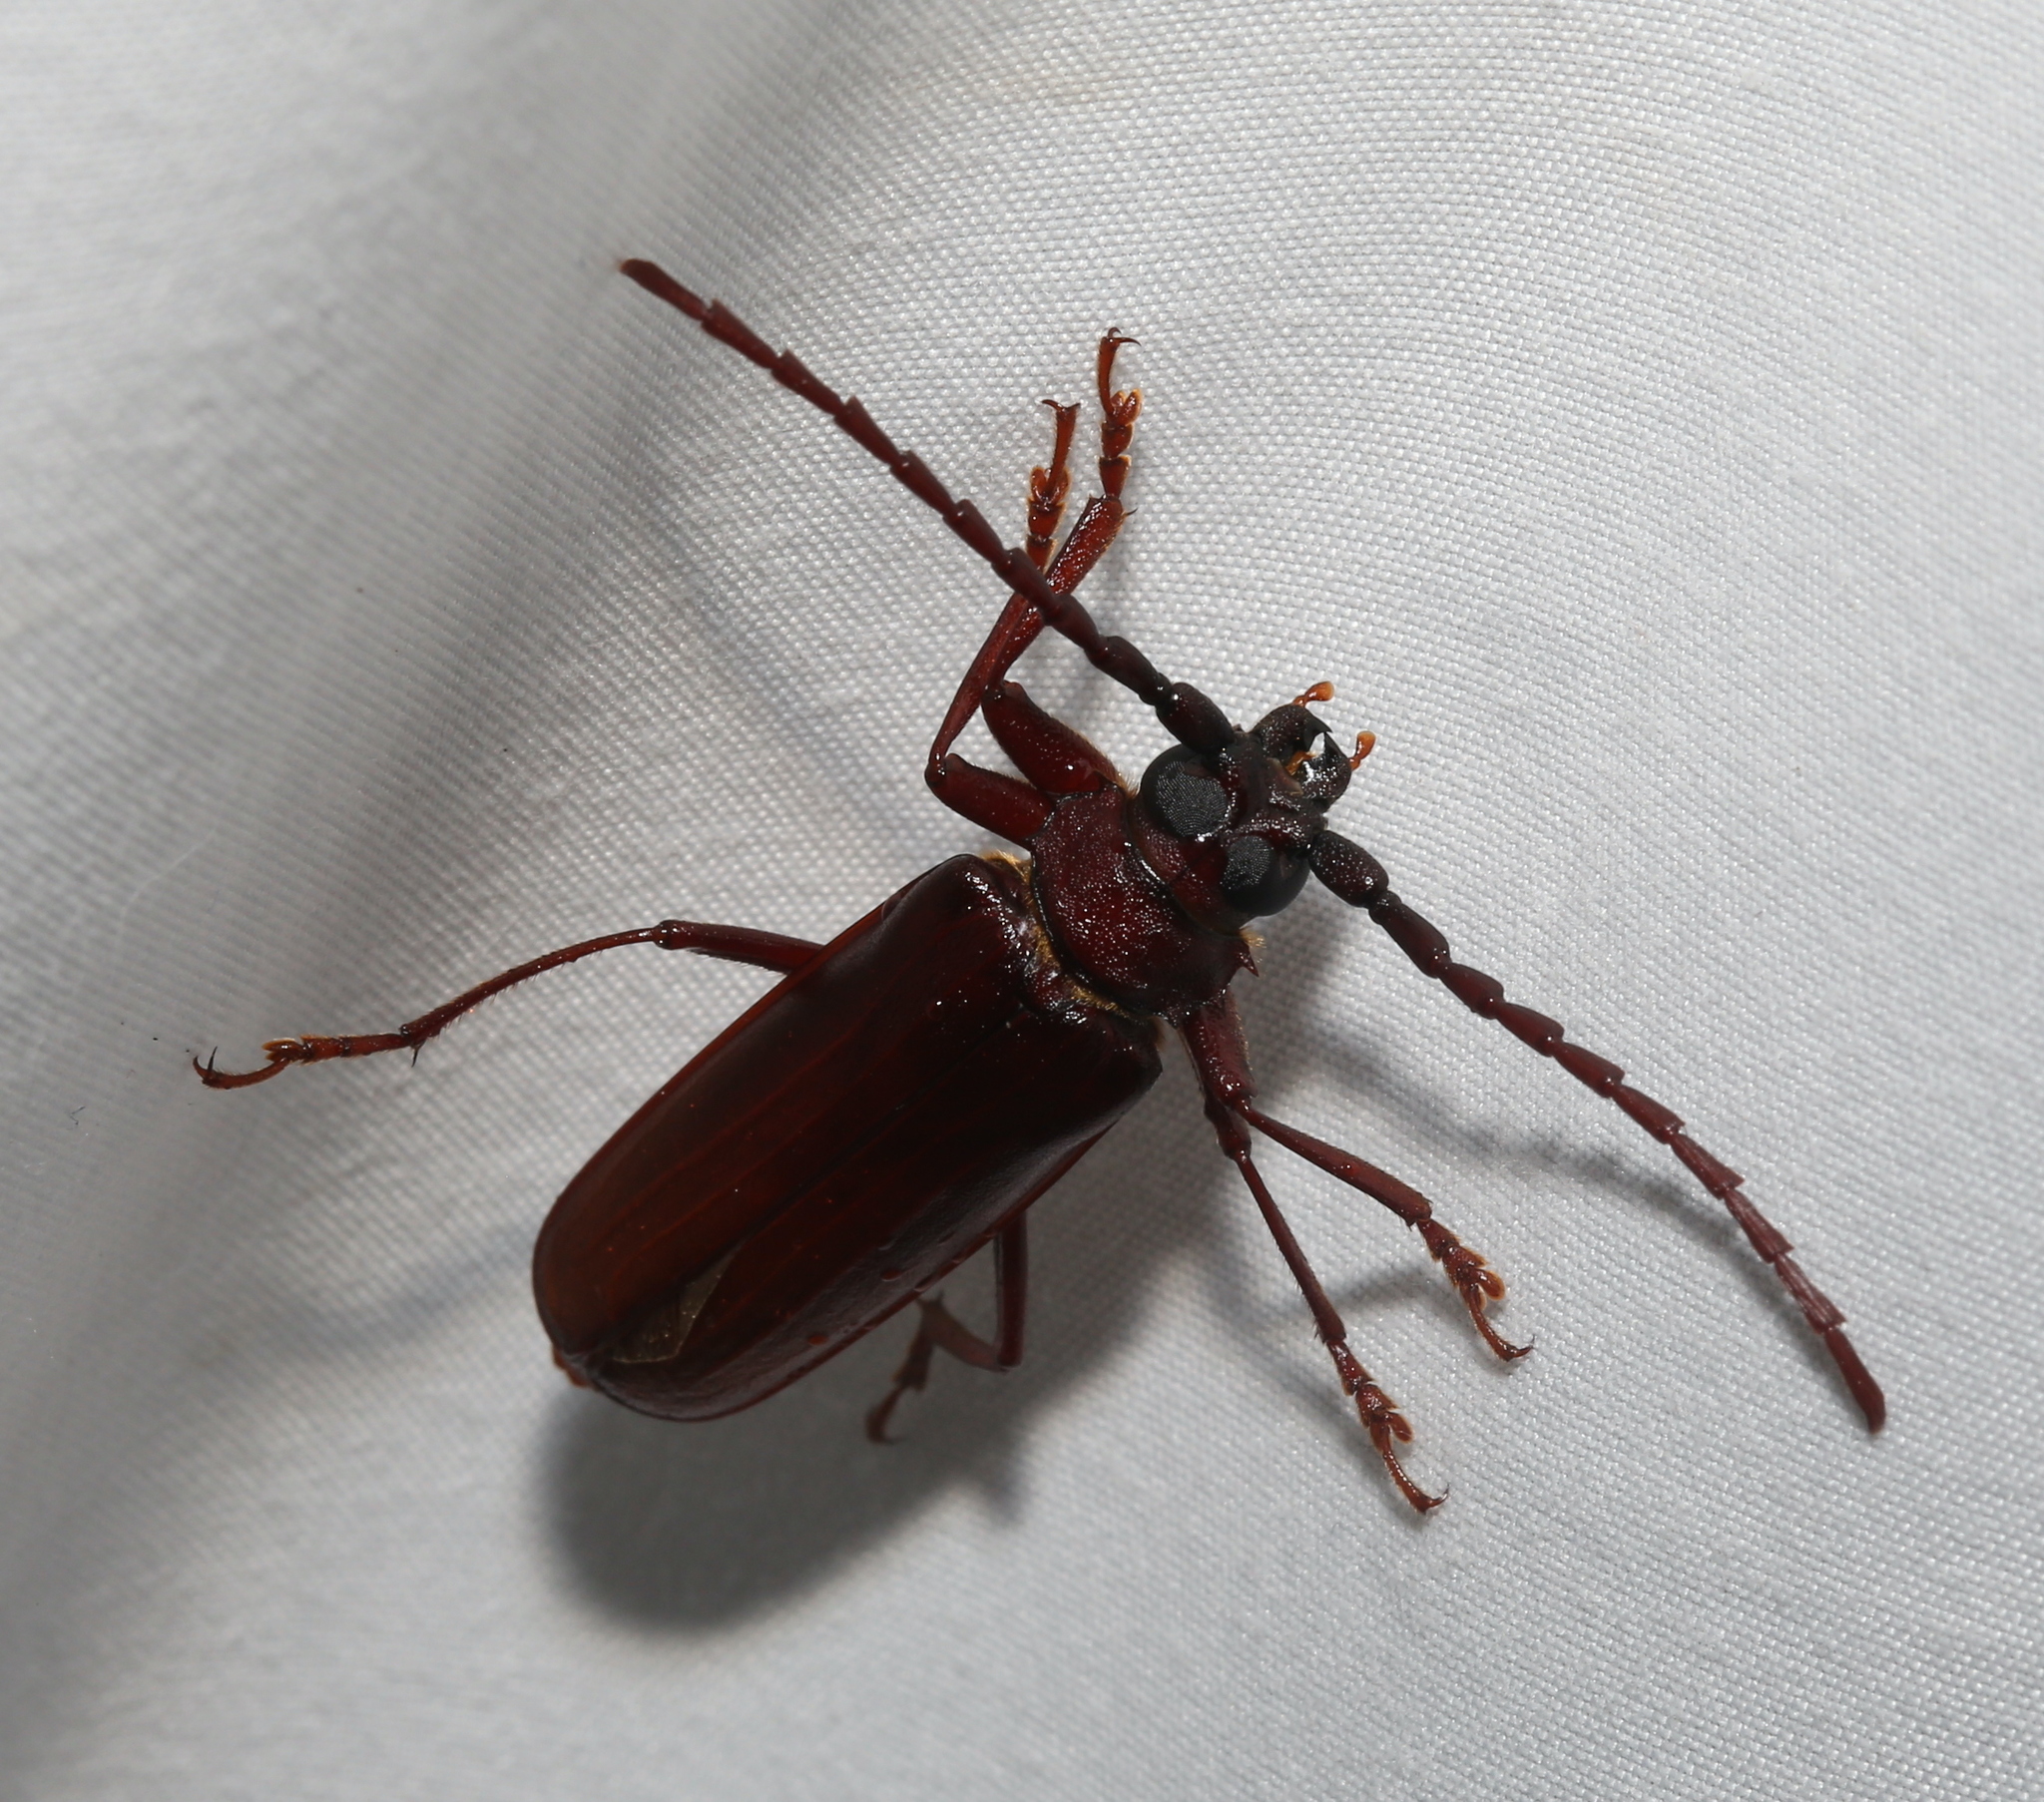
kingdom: Animalia
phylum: Arthropoda
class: Insecta
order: Coleoptera
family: Cerambycidae
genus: Orthosoma
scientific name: Orthosoma brunneum
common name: Brown prionid beetle
